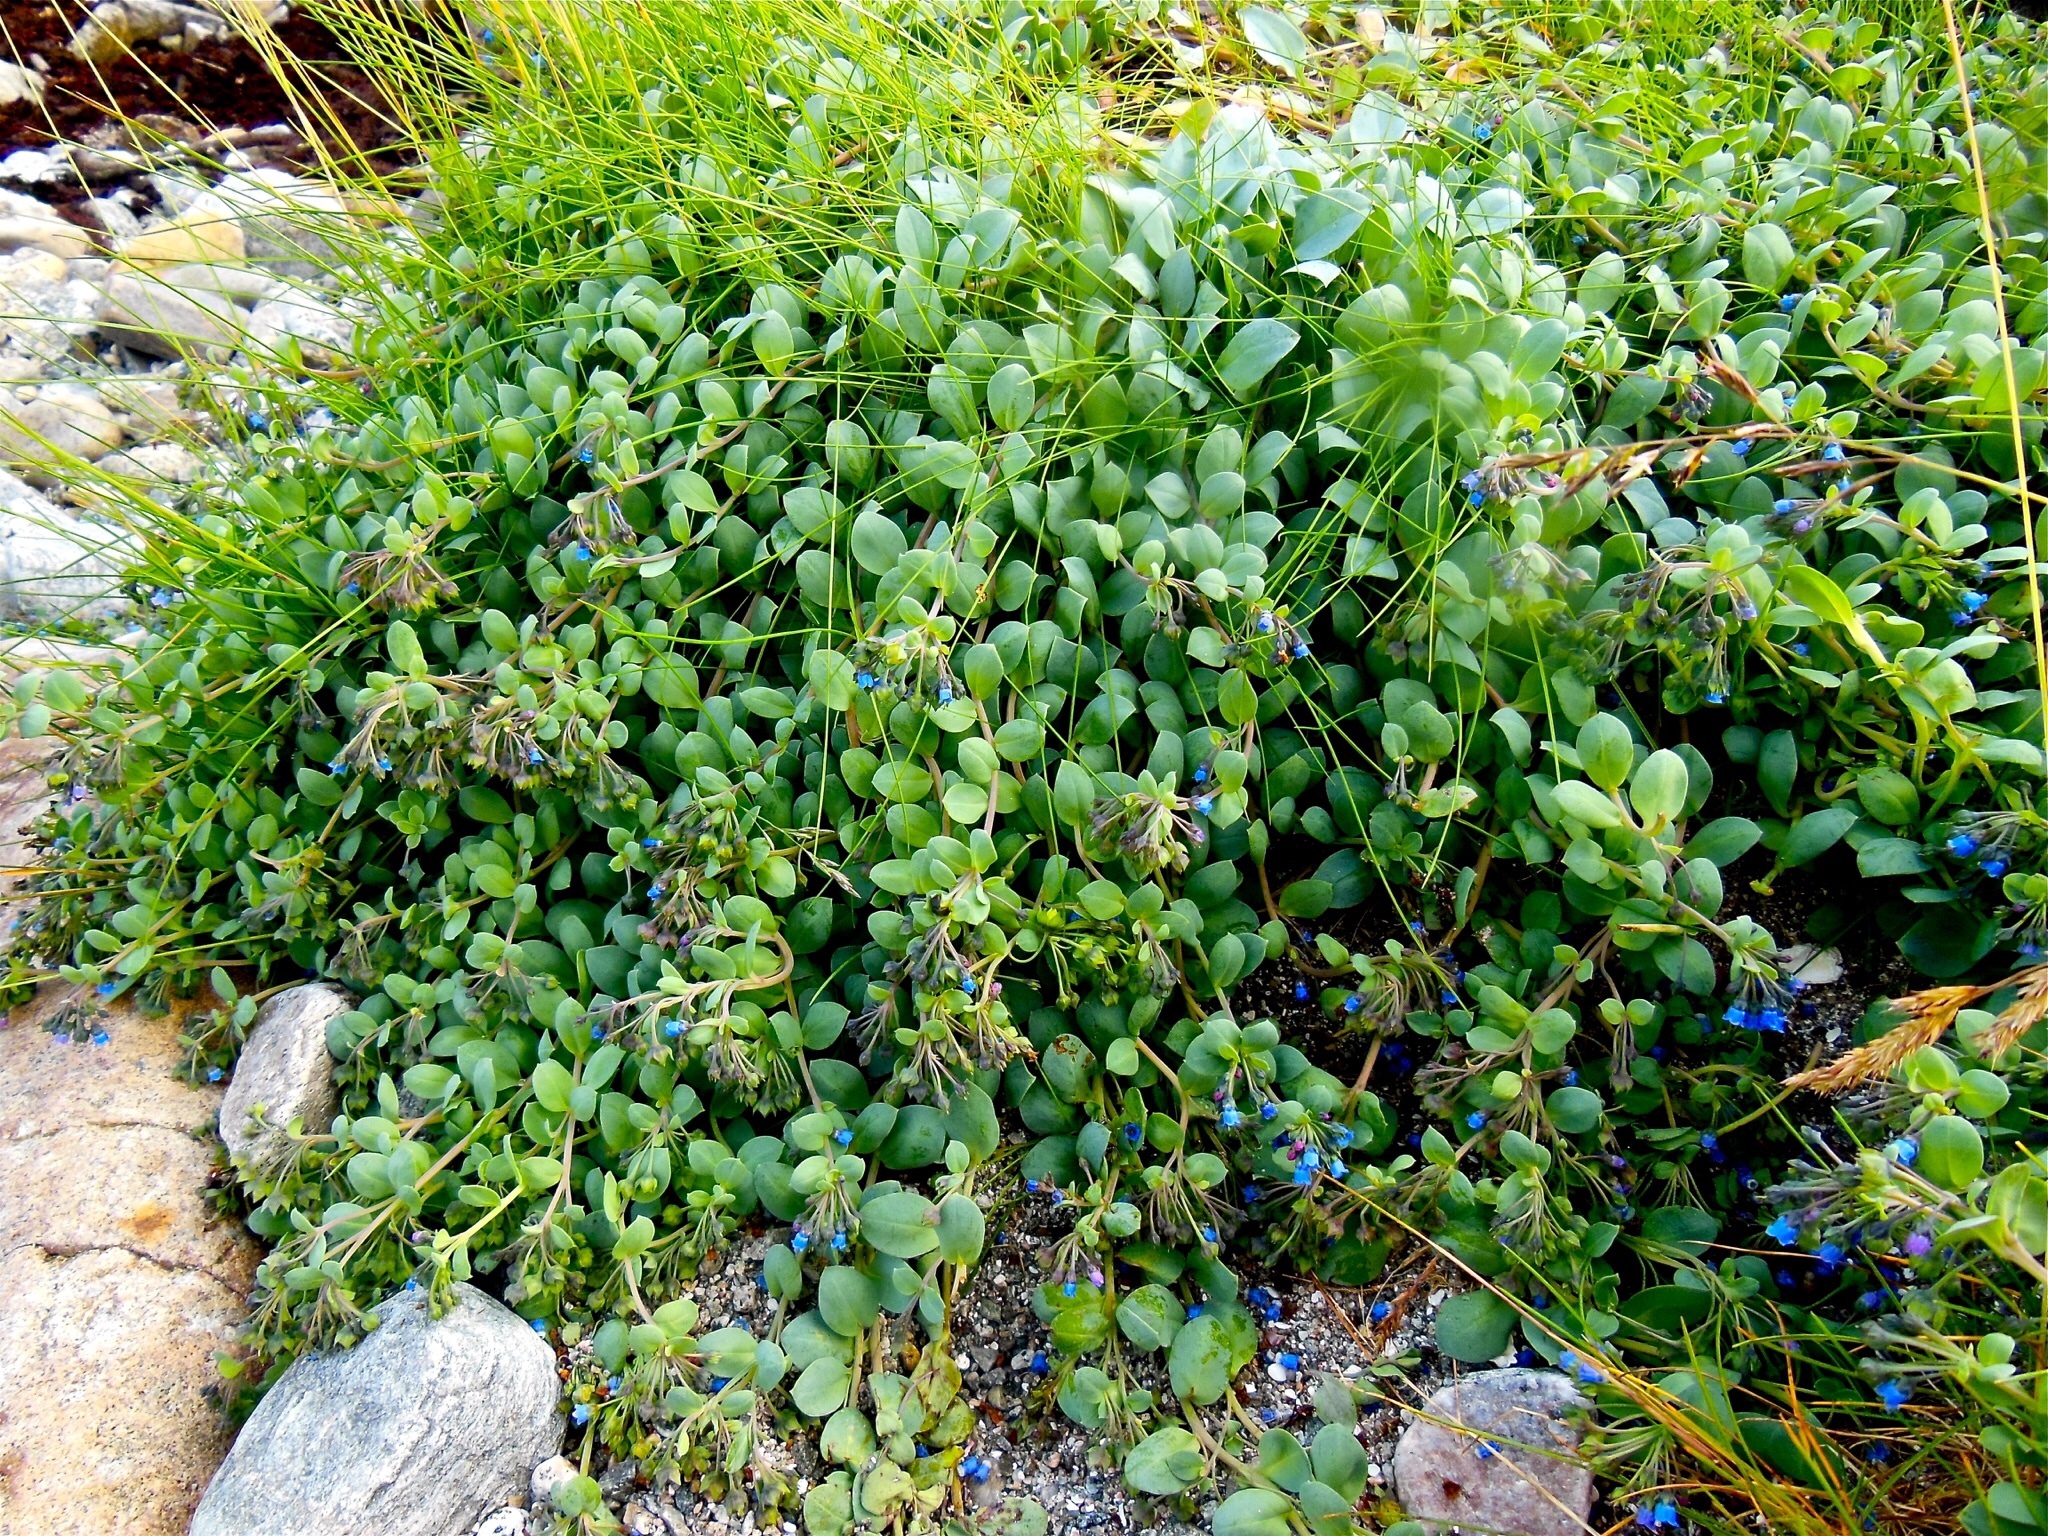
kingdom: Plantae
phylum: Tracheophyta
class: Magnoliopsida
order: Boraginales
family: Boraginaceae
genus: Mertensia
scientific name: Mertensia maritima
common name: Oysterplant
